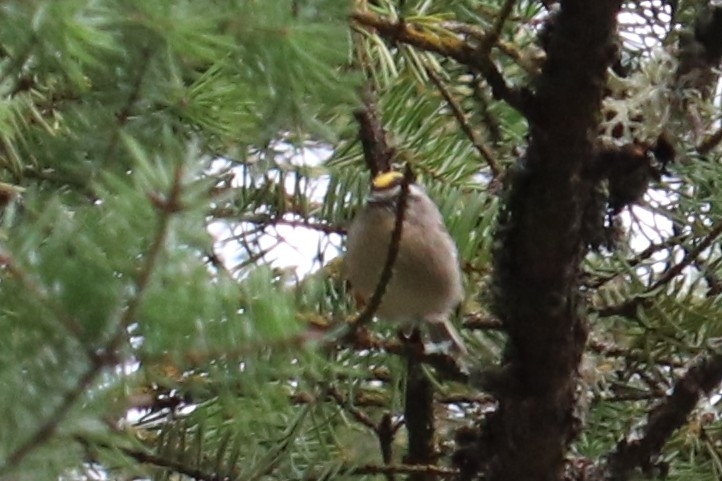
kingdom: Animalia
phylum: Chordata
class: Aves
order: Passeriformes
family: Regulidae
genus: Regulus
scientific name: Regulus satrapa
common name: Golden-crowned kinglet
